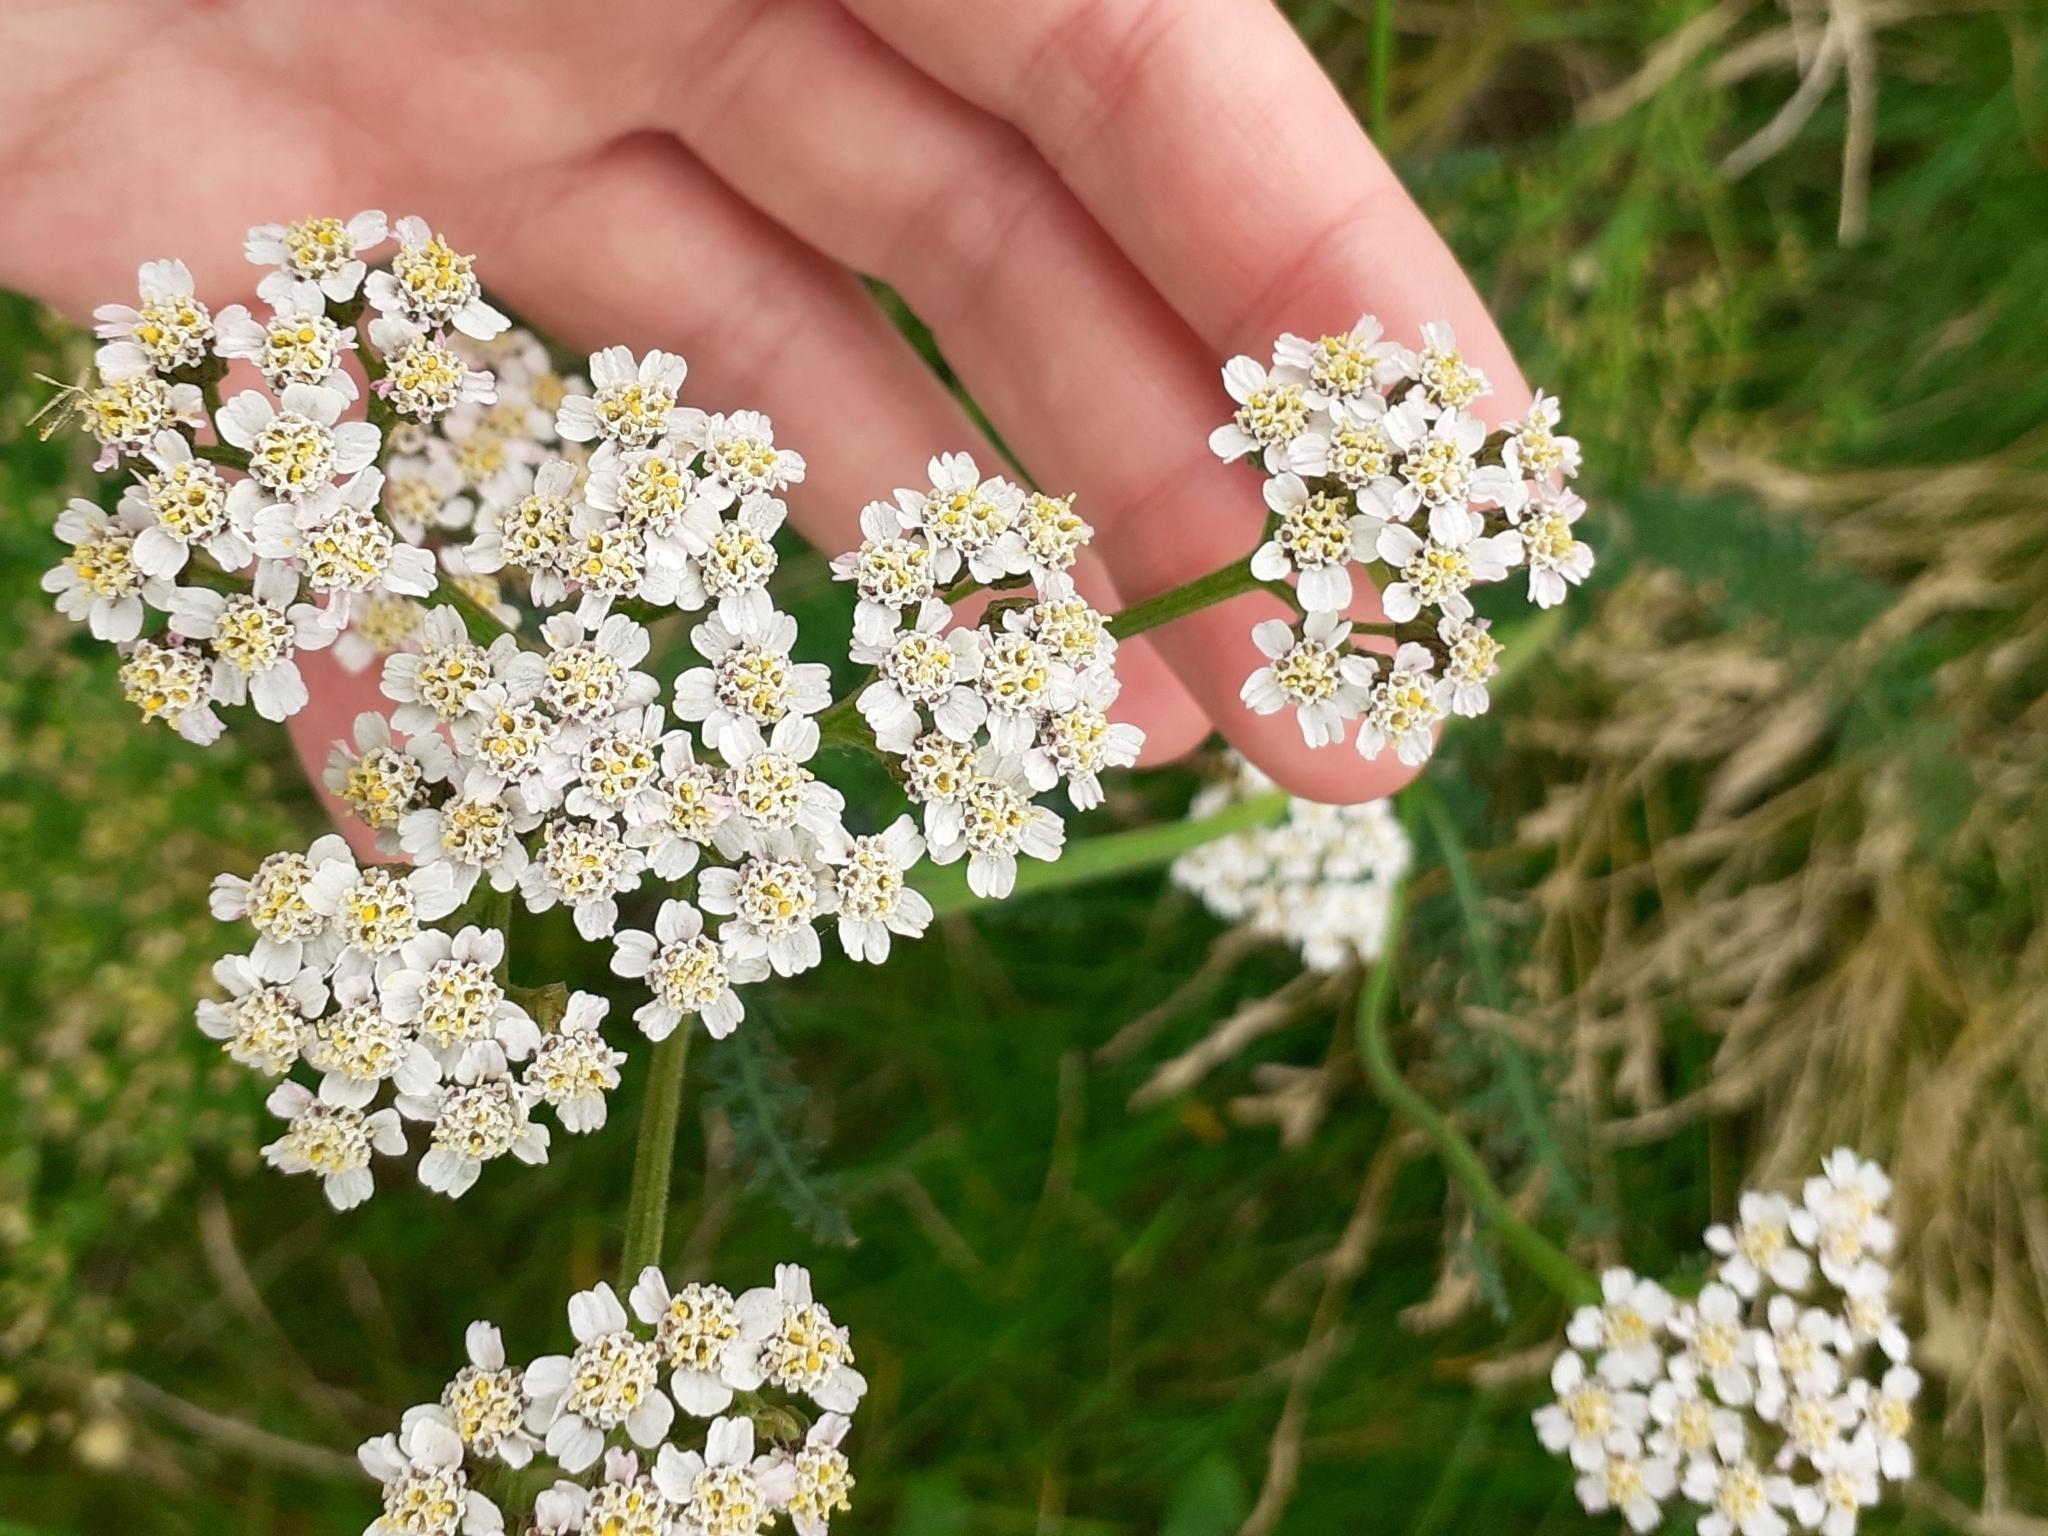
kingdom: Plantae
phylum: Tracheophyta
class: Magnoliopsida
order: Asterales
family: Asteraceae
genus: Achillea
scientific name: Achillea millefolium
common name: Yarrow
